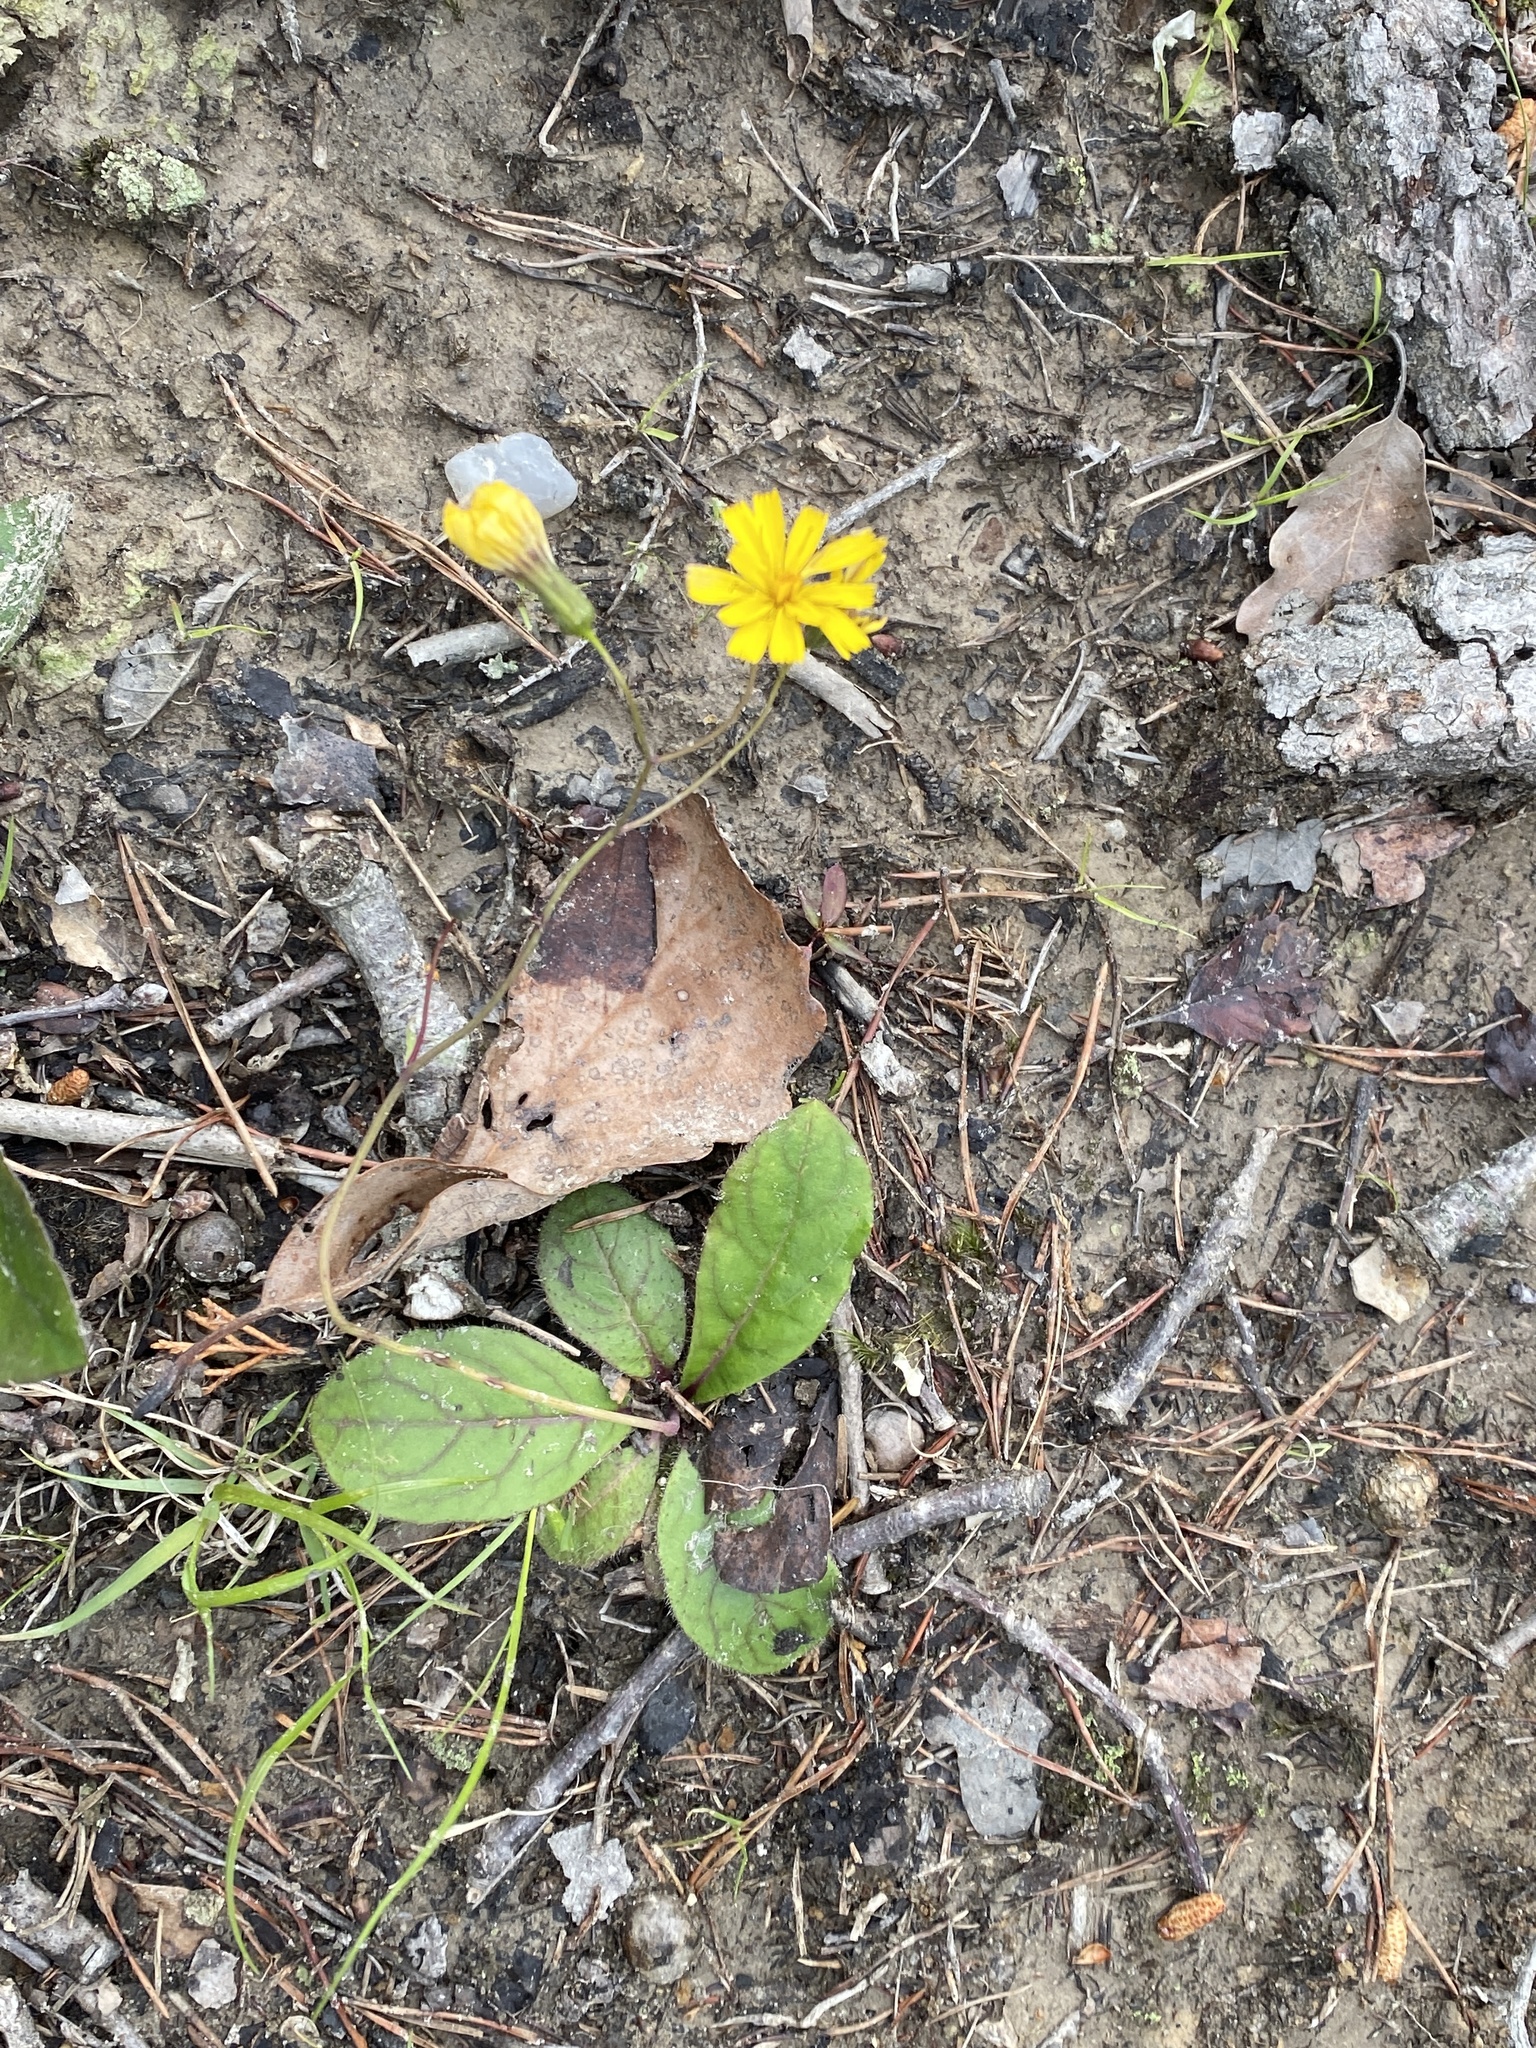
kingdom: Plantae
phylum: Tracheophyta
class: Magnoliopsida
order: Asterales
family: Asteraceae
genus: Hieracium
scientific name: Hieracium venosum
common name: Rattlesnake hawkweed
